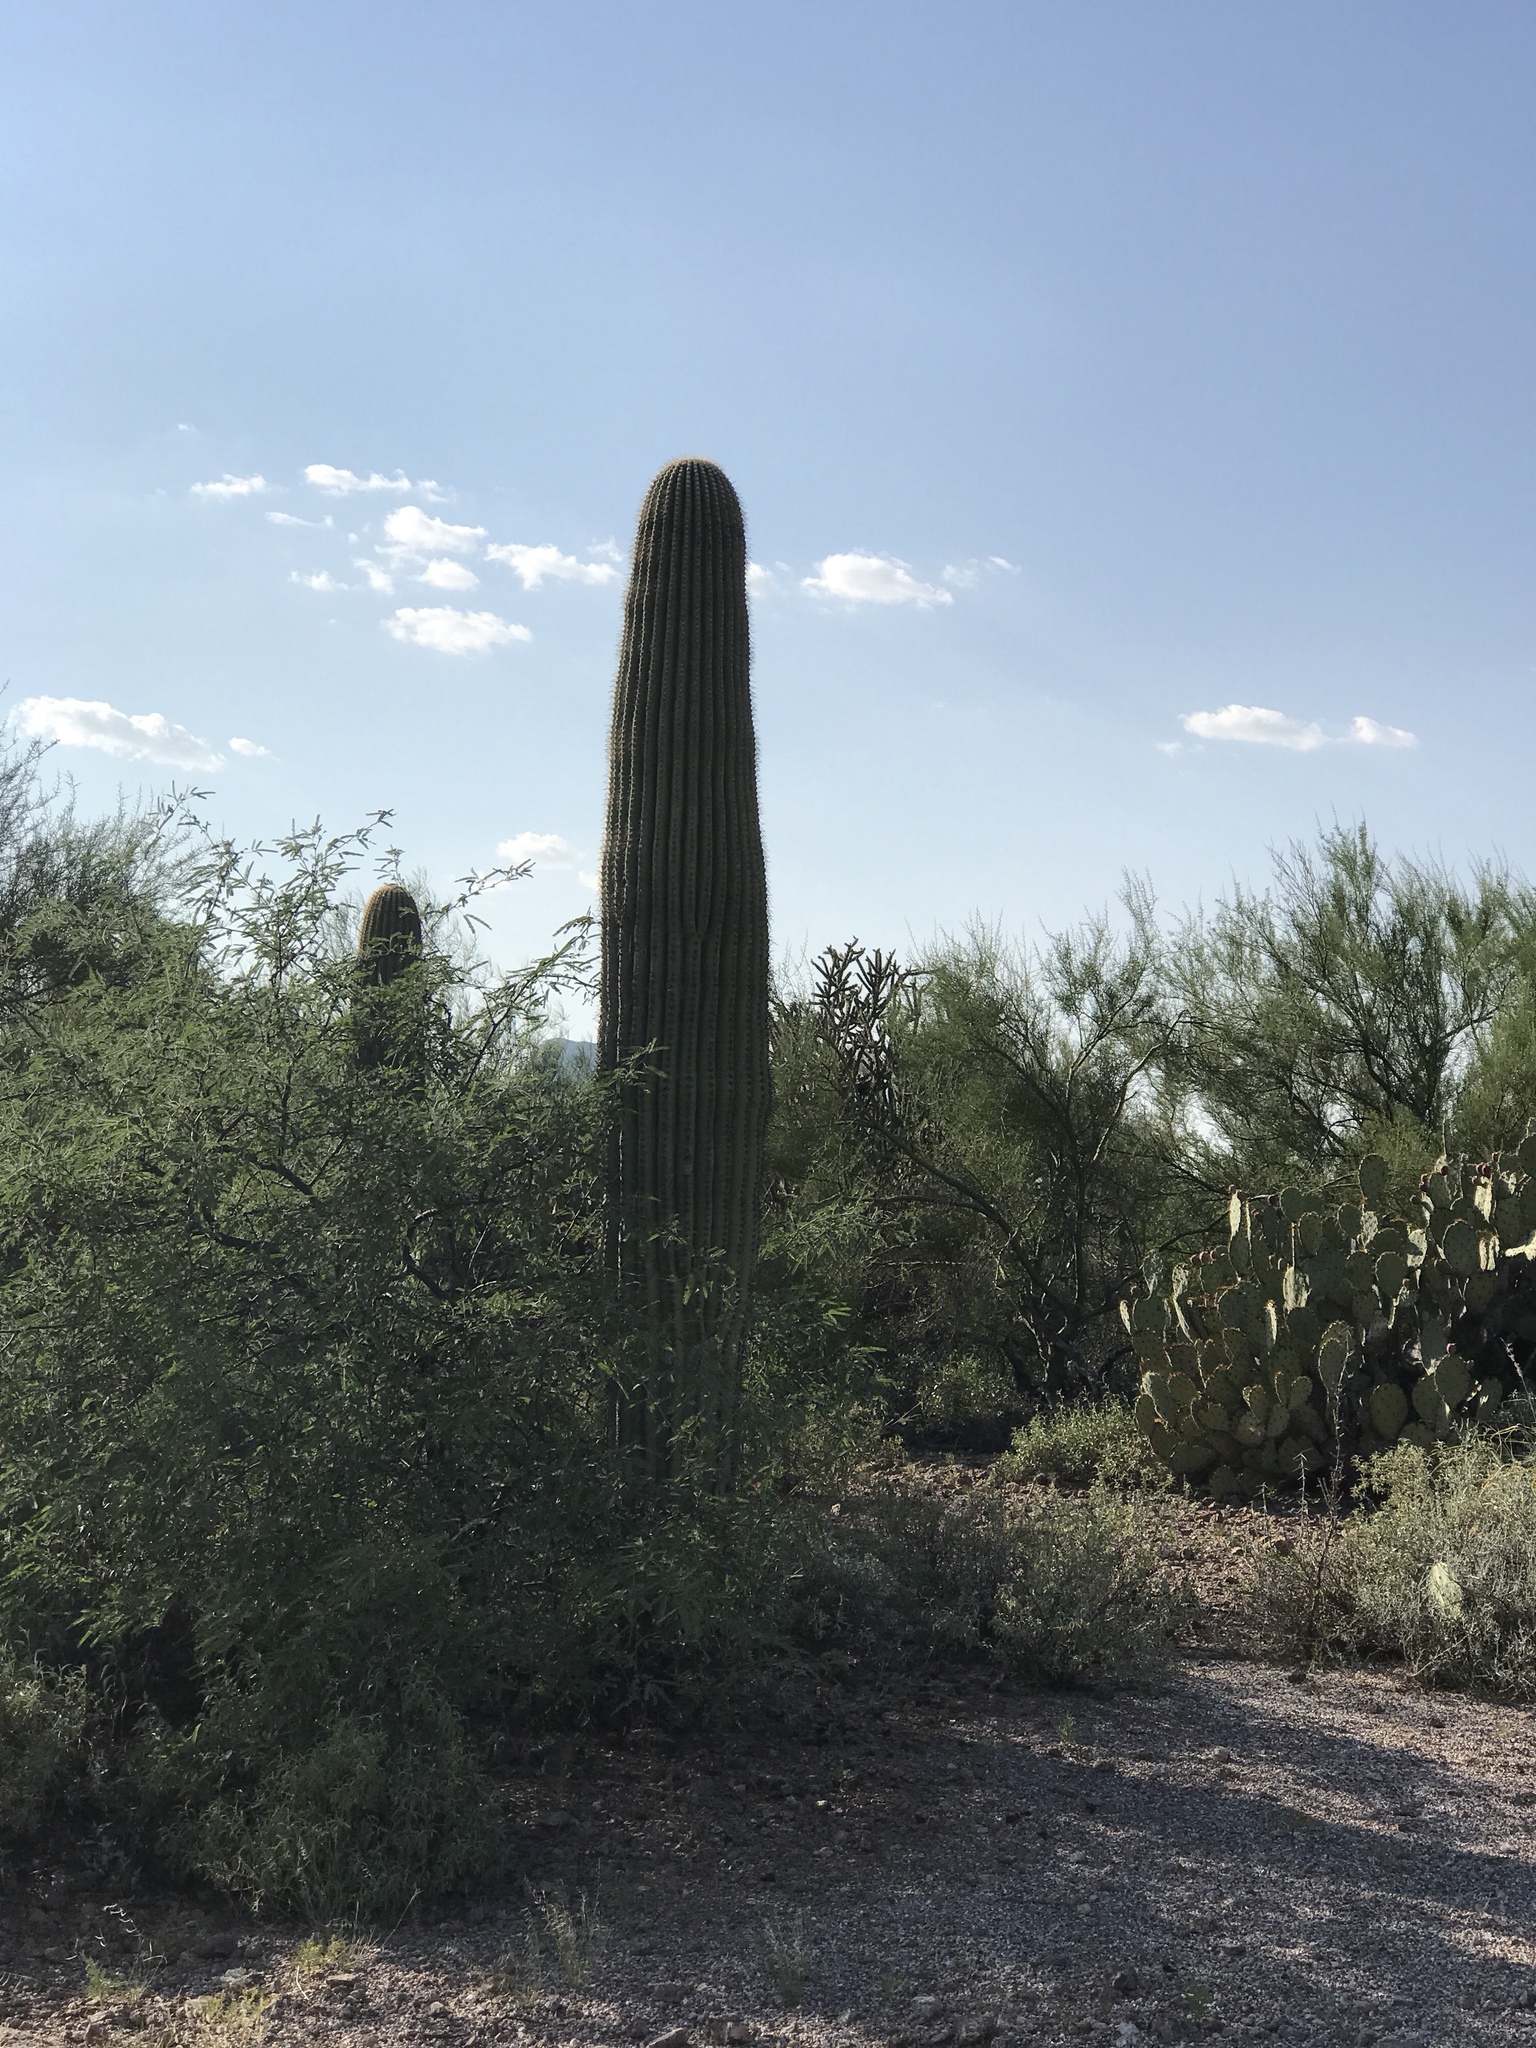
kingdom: Plantae
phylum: Tracheophyta
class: Magnoliopsida
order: Caryophyllales
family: Cactaceae
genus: Carnegiea
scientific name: Carnegiea gigantea
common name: Saguaro
